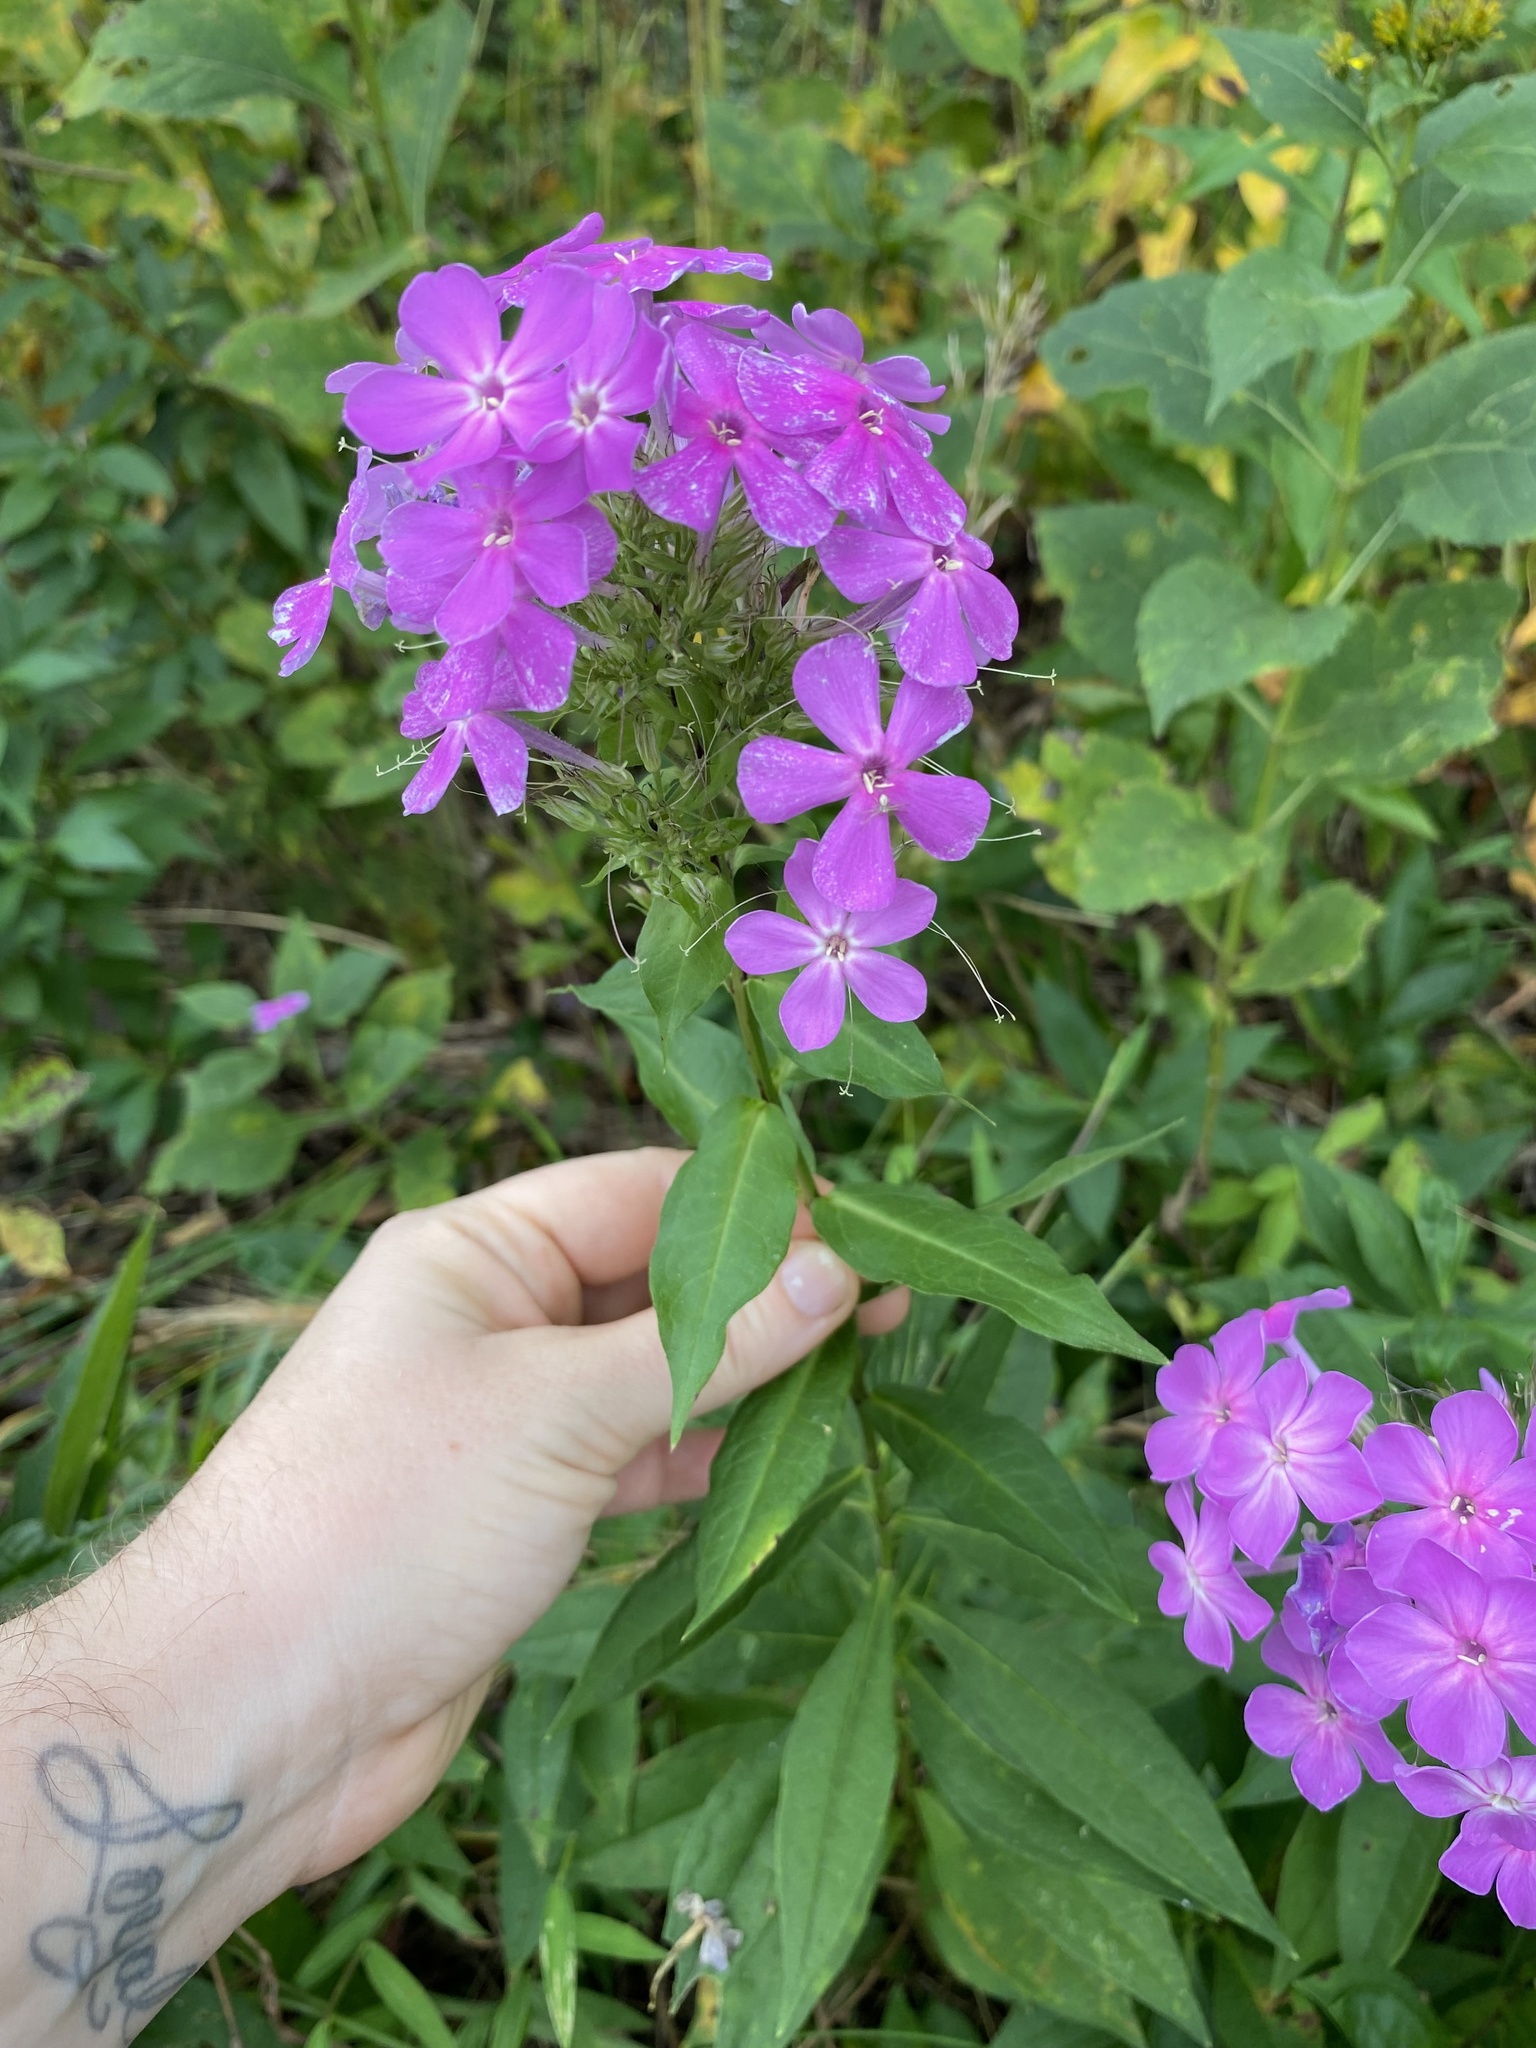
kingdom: Plantae
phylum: Tracheophyta
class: Magnoliopsida
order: Ericales
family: Polemoniaceae
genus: Phlox
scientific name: Phlox paniculata
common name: Fall phlox
